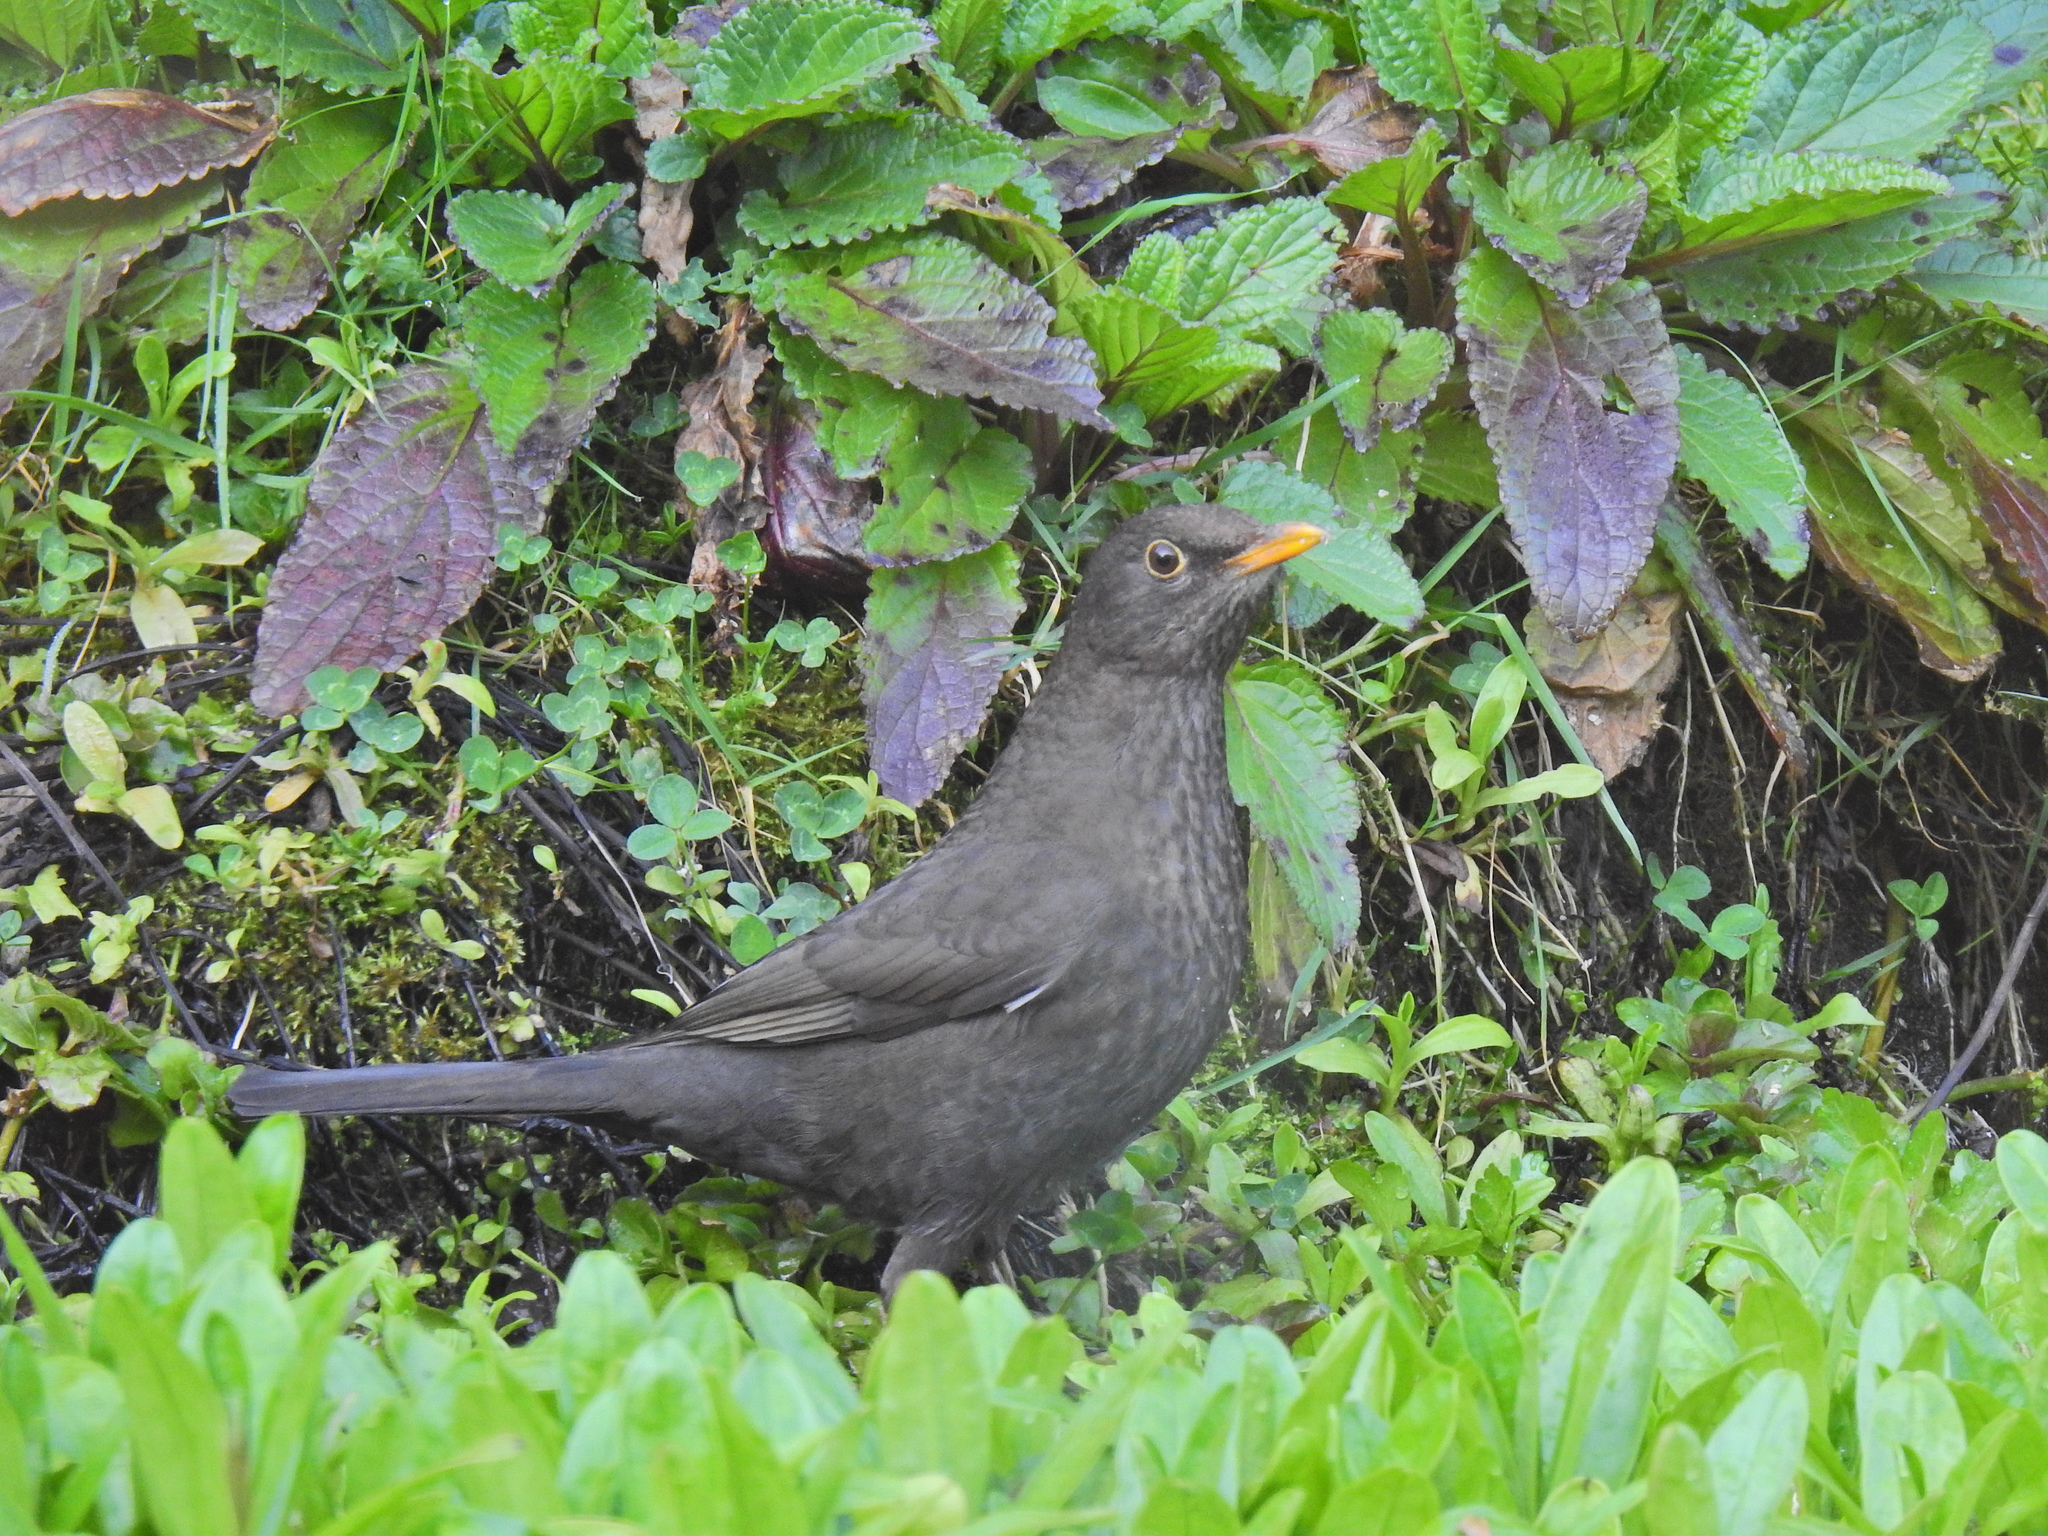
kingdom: Animalia
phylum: Chordata
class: Aves
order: Passeriformes
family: Turdidae
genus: Turdus
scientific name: Turdus merula
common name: Common blackbird
